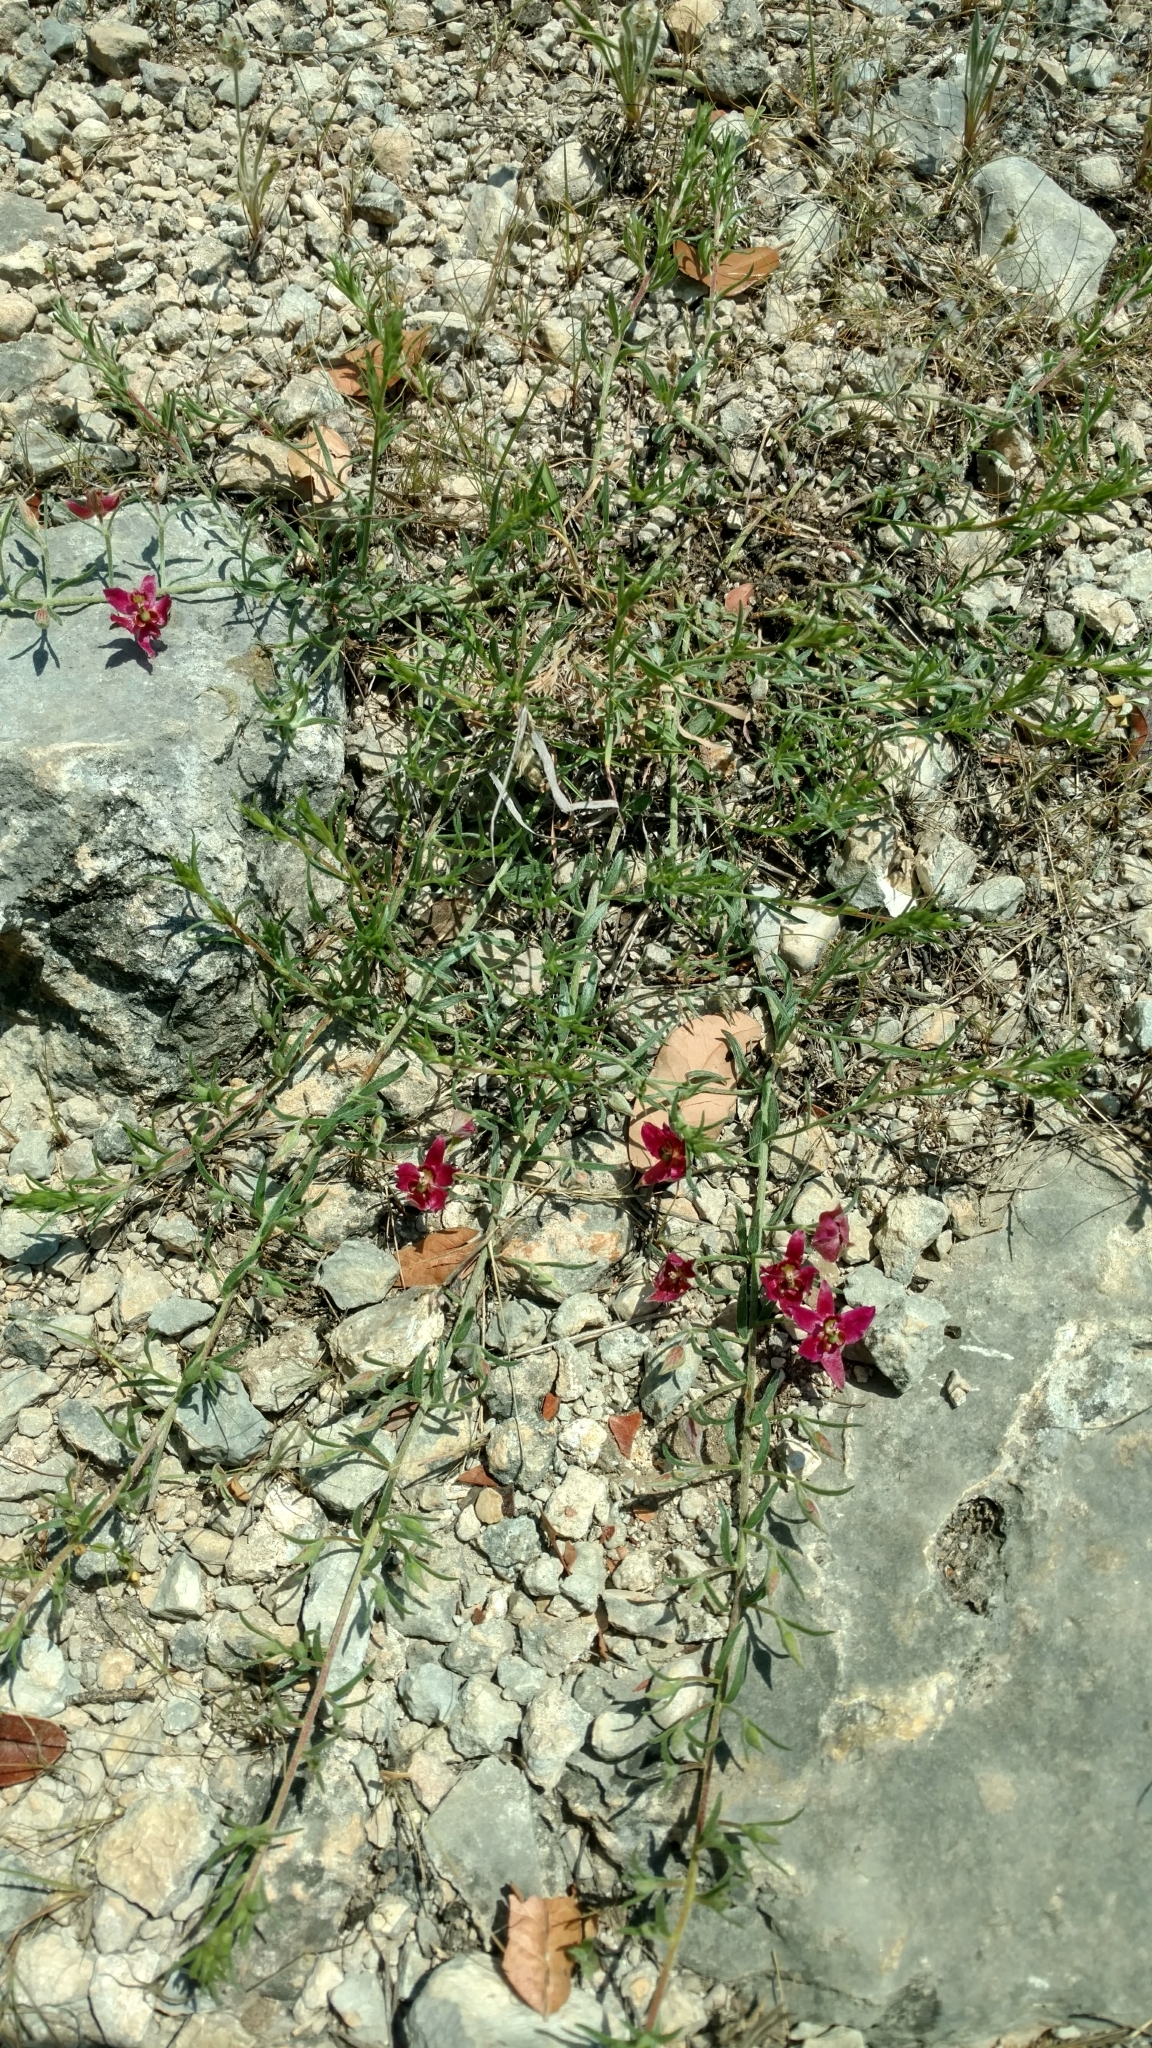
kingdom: Plantae
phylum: Tracheophyta
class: Magnoliopsida
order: Zygophyllales
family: Krameriaceae
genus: Krameria
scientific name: Krameria lanceolata
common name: Ratany
